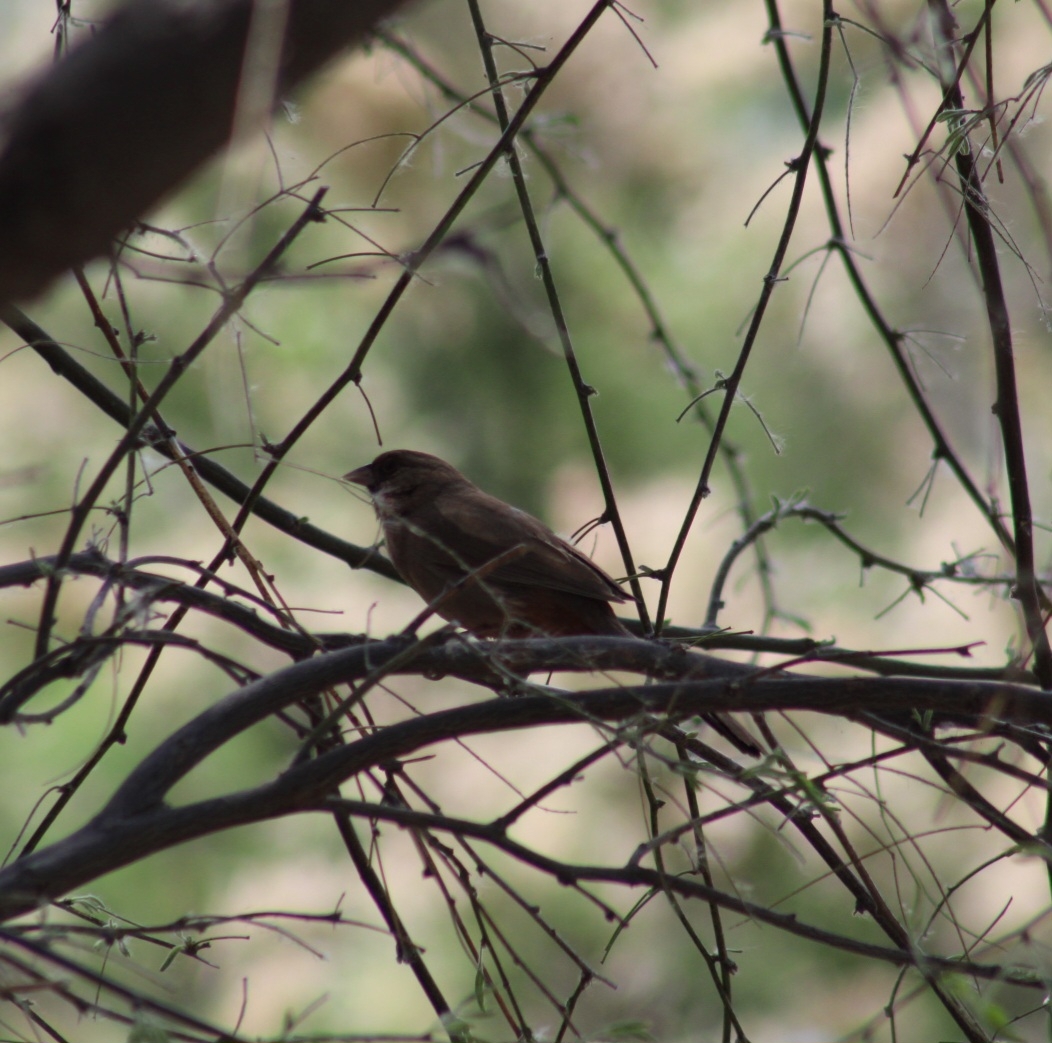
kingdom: Animalia
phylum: Chordata
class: Aves
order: Passeriformes
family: Passerellidae
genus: Melozone
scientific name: Melozone aberti
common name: Abert's towhee
